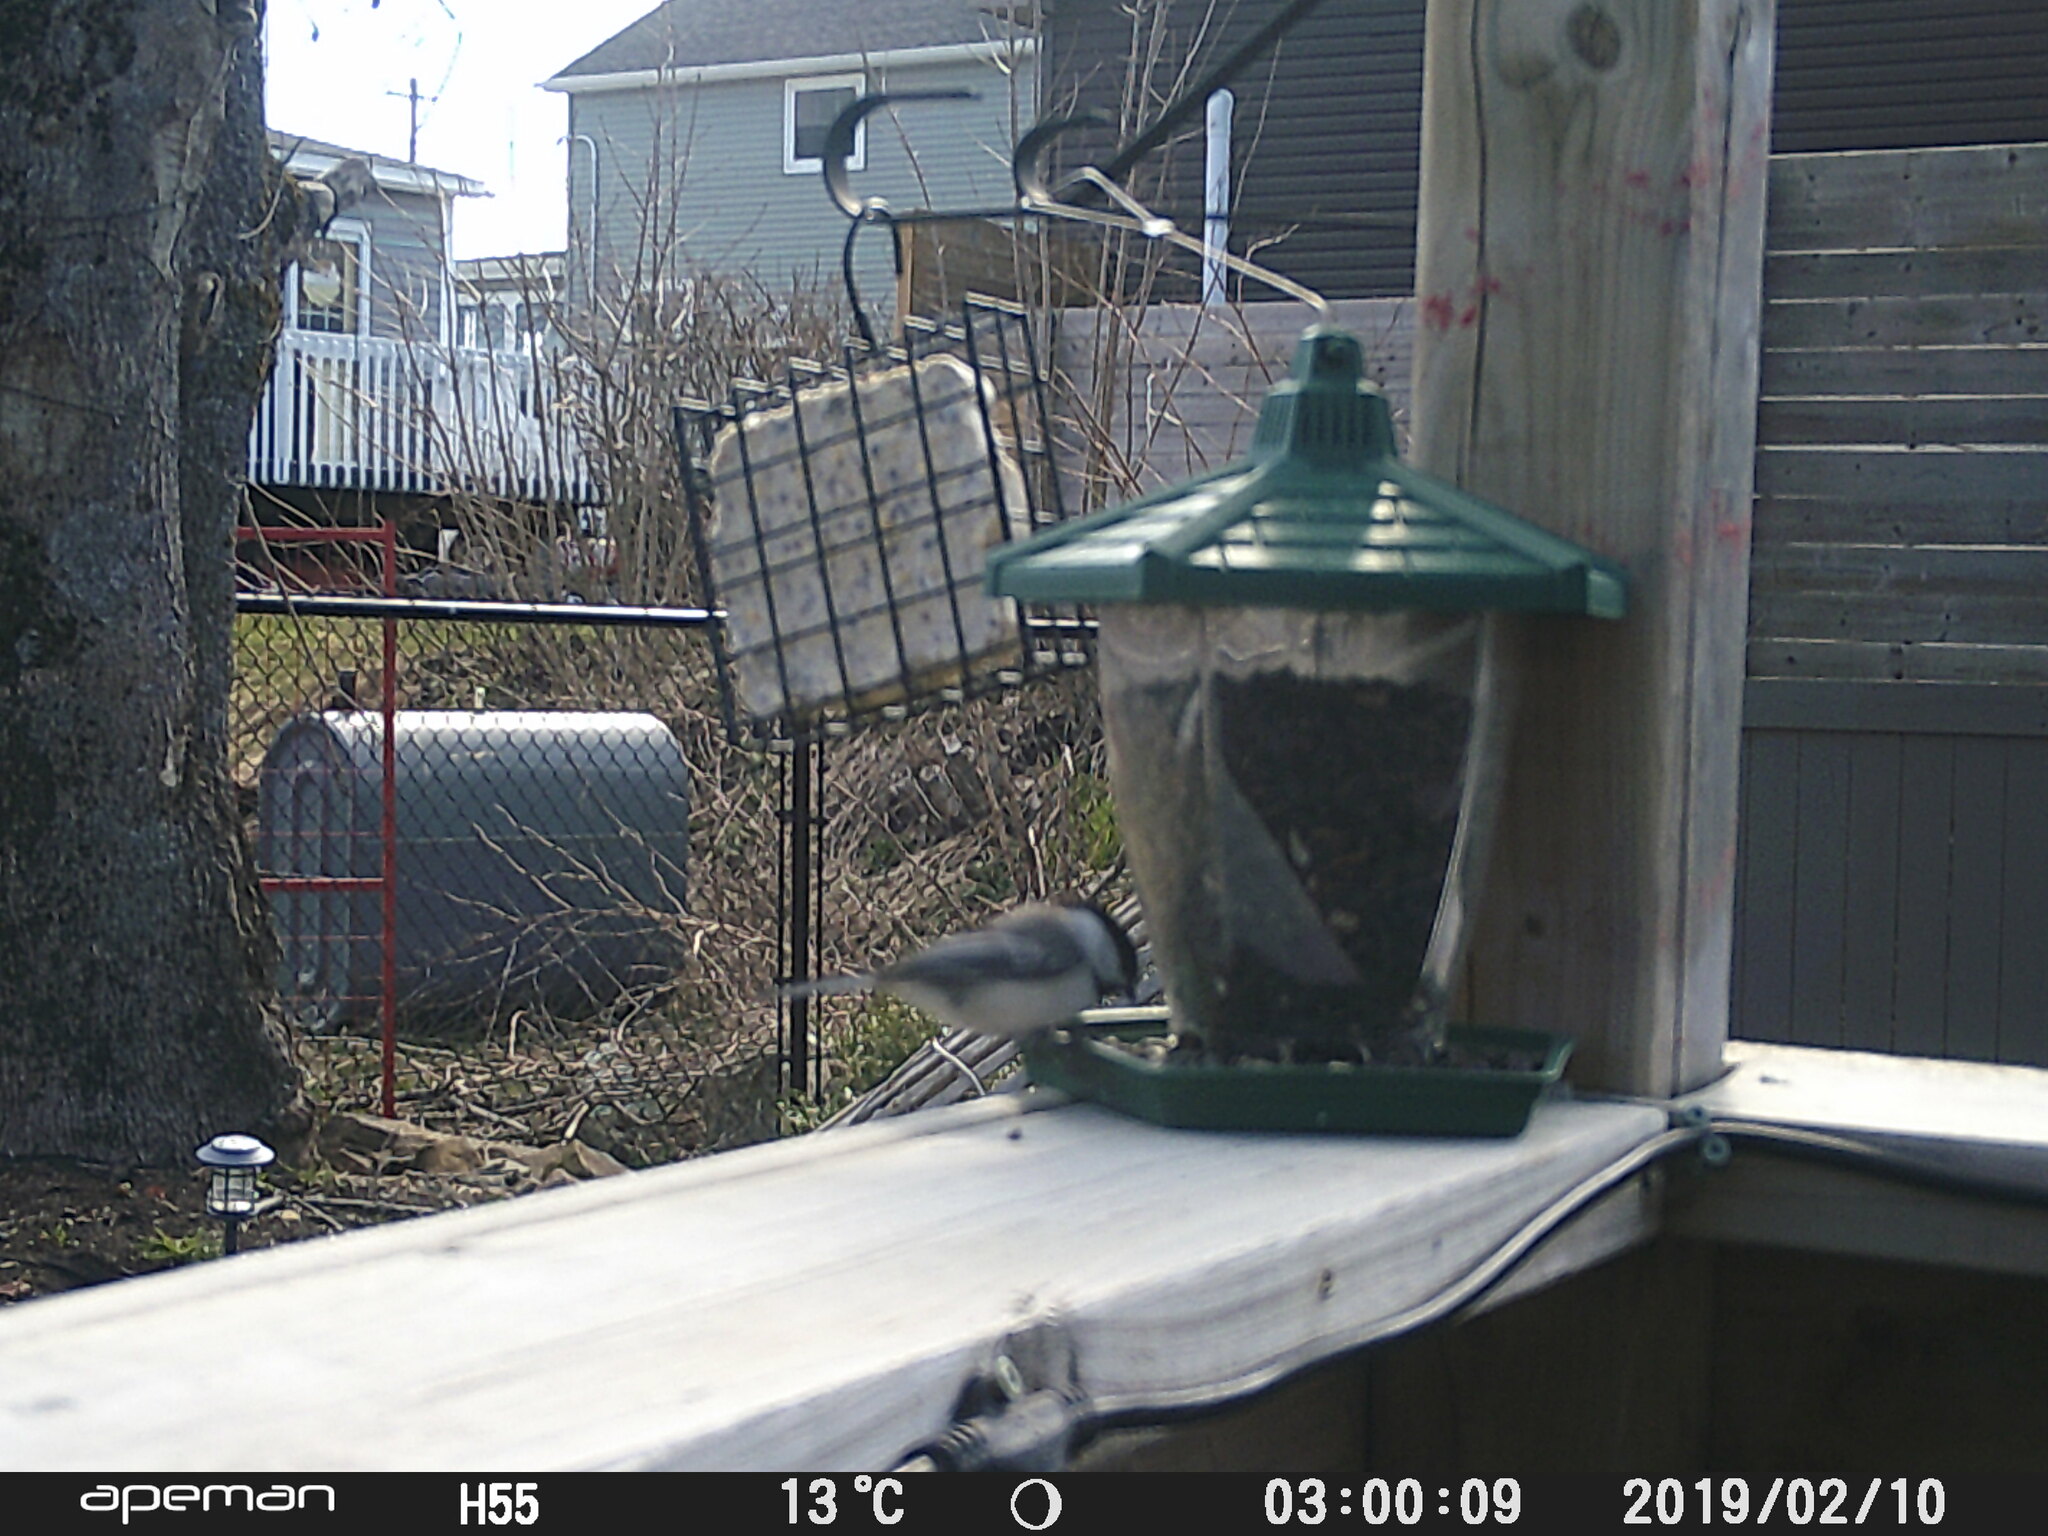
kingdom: Animalia
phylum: Chordata
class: Aves
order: Passeriformes
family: Paridae
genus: Poecile
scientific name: Poecile atricapillus
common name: Black-capped chickadee
